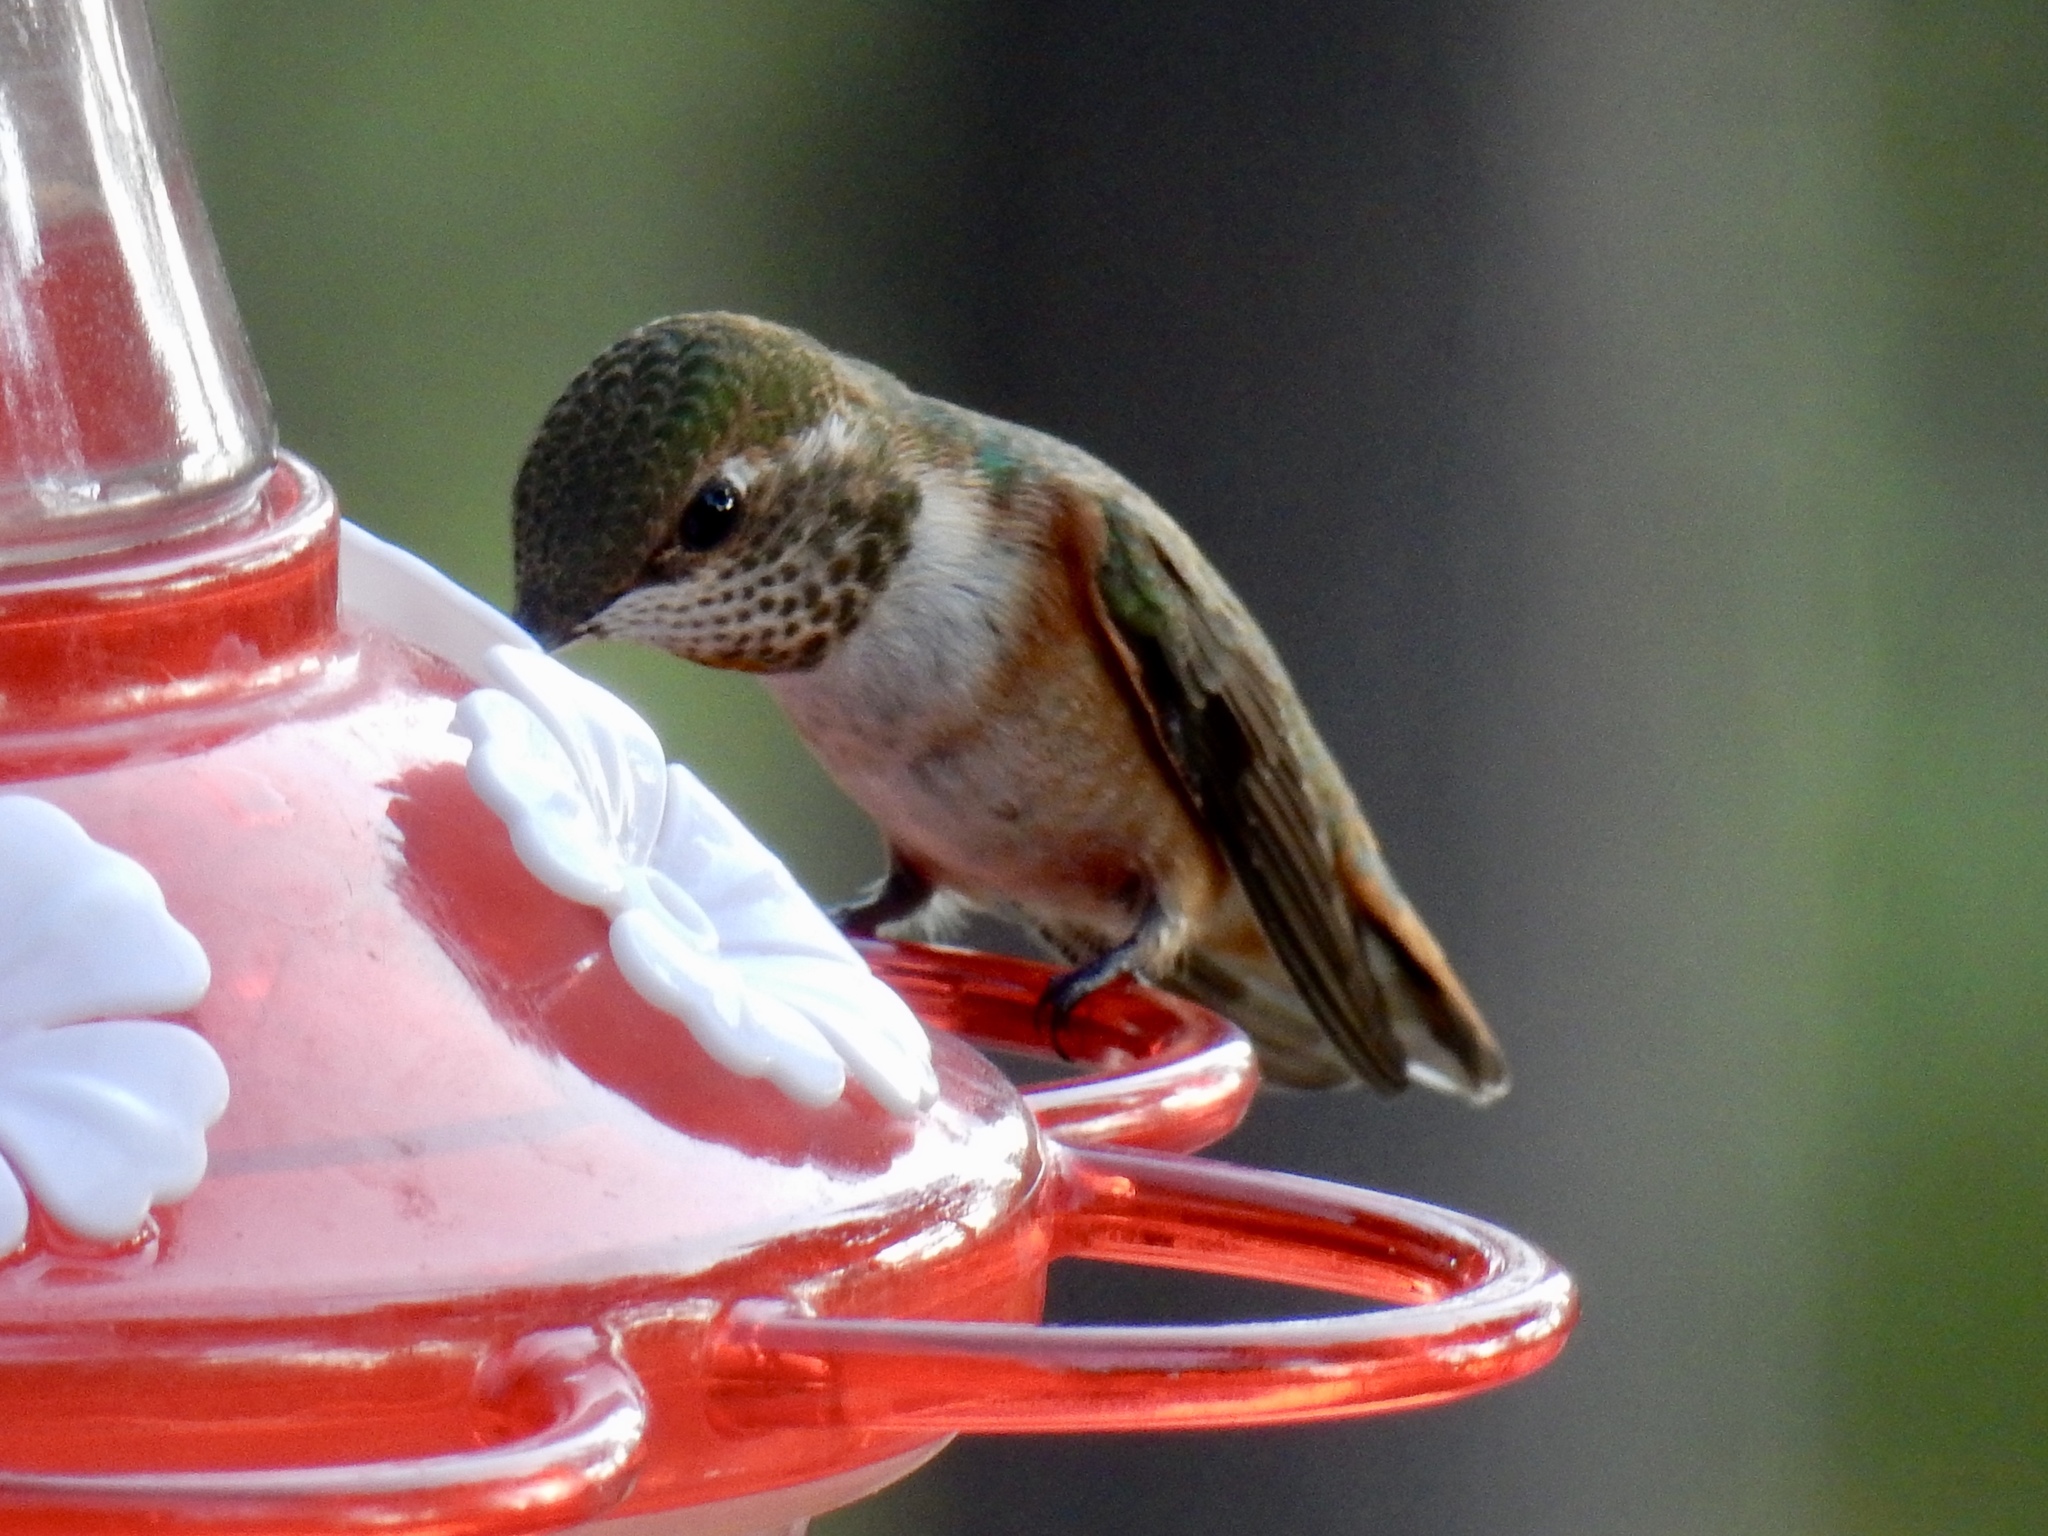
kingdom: Animalia
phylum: Chordata
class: Aves
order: Apodiformes
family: Trochilidae
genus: Selasphorus
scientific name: Selasphorus rufus
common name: Rufous hummingbird
